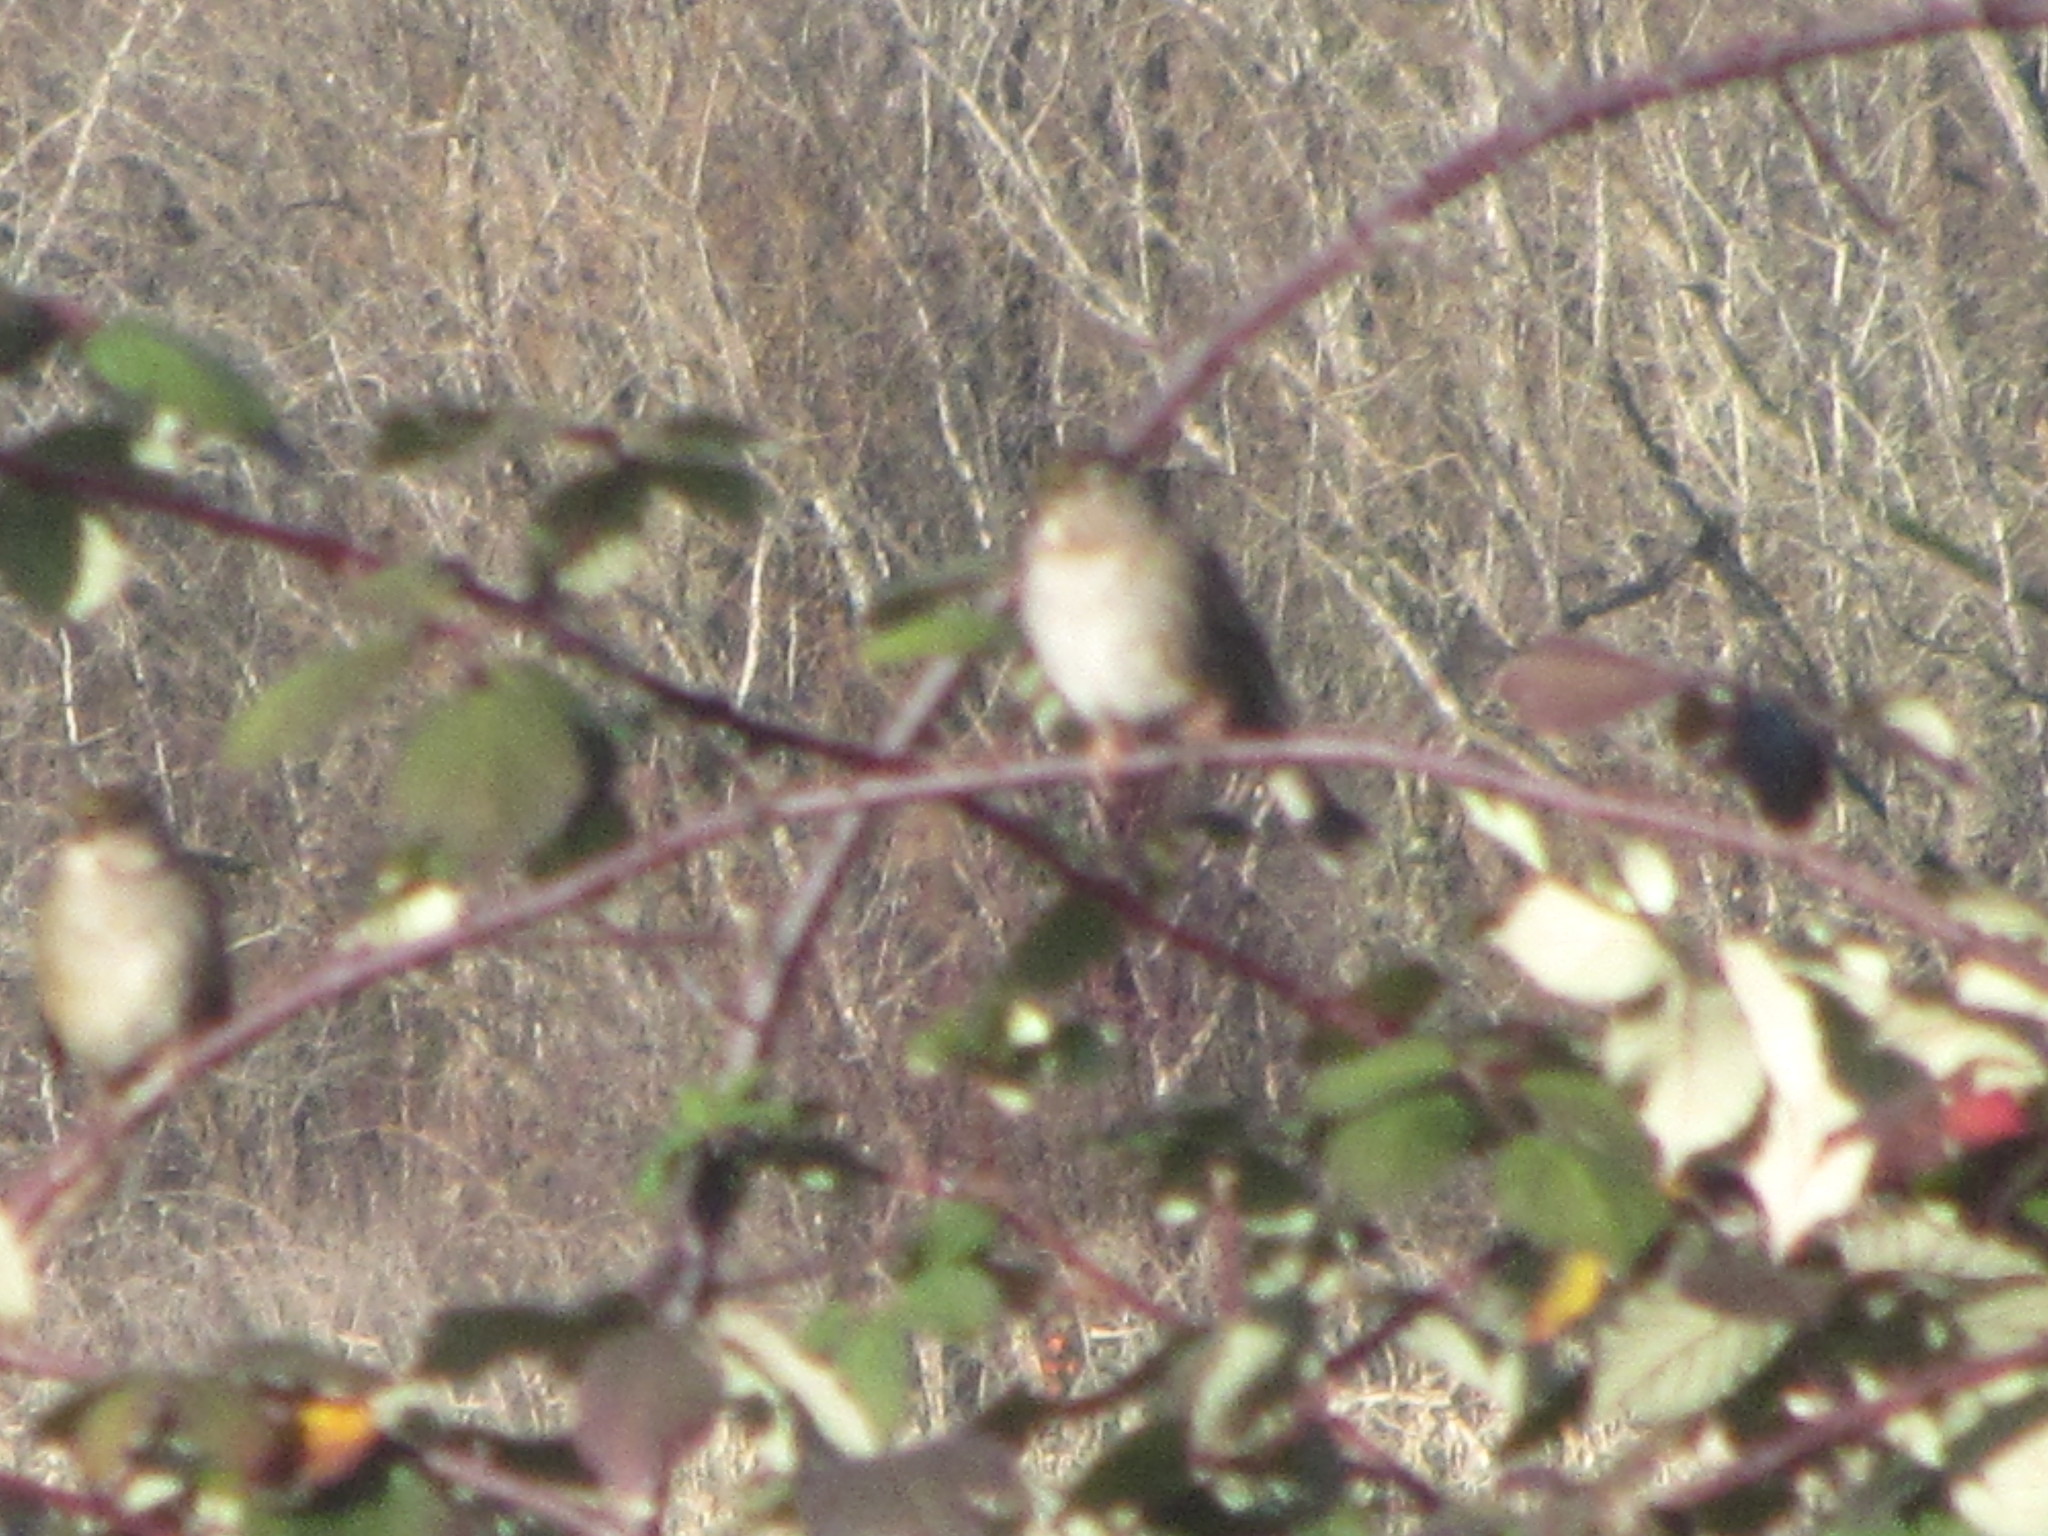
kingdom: Animalia
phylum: Chordata
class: Aves
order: Passeriformes
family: Passerellidae
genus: Zonotrichia
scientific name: Zonotrichia atricapilla
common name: Golden-crowned sparrow
